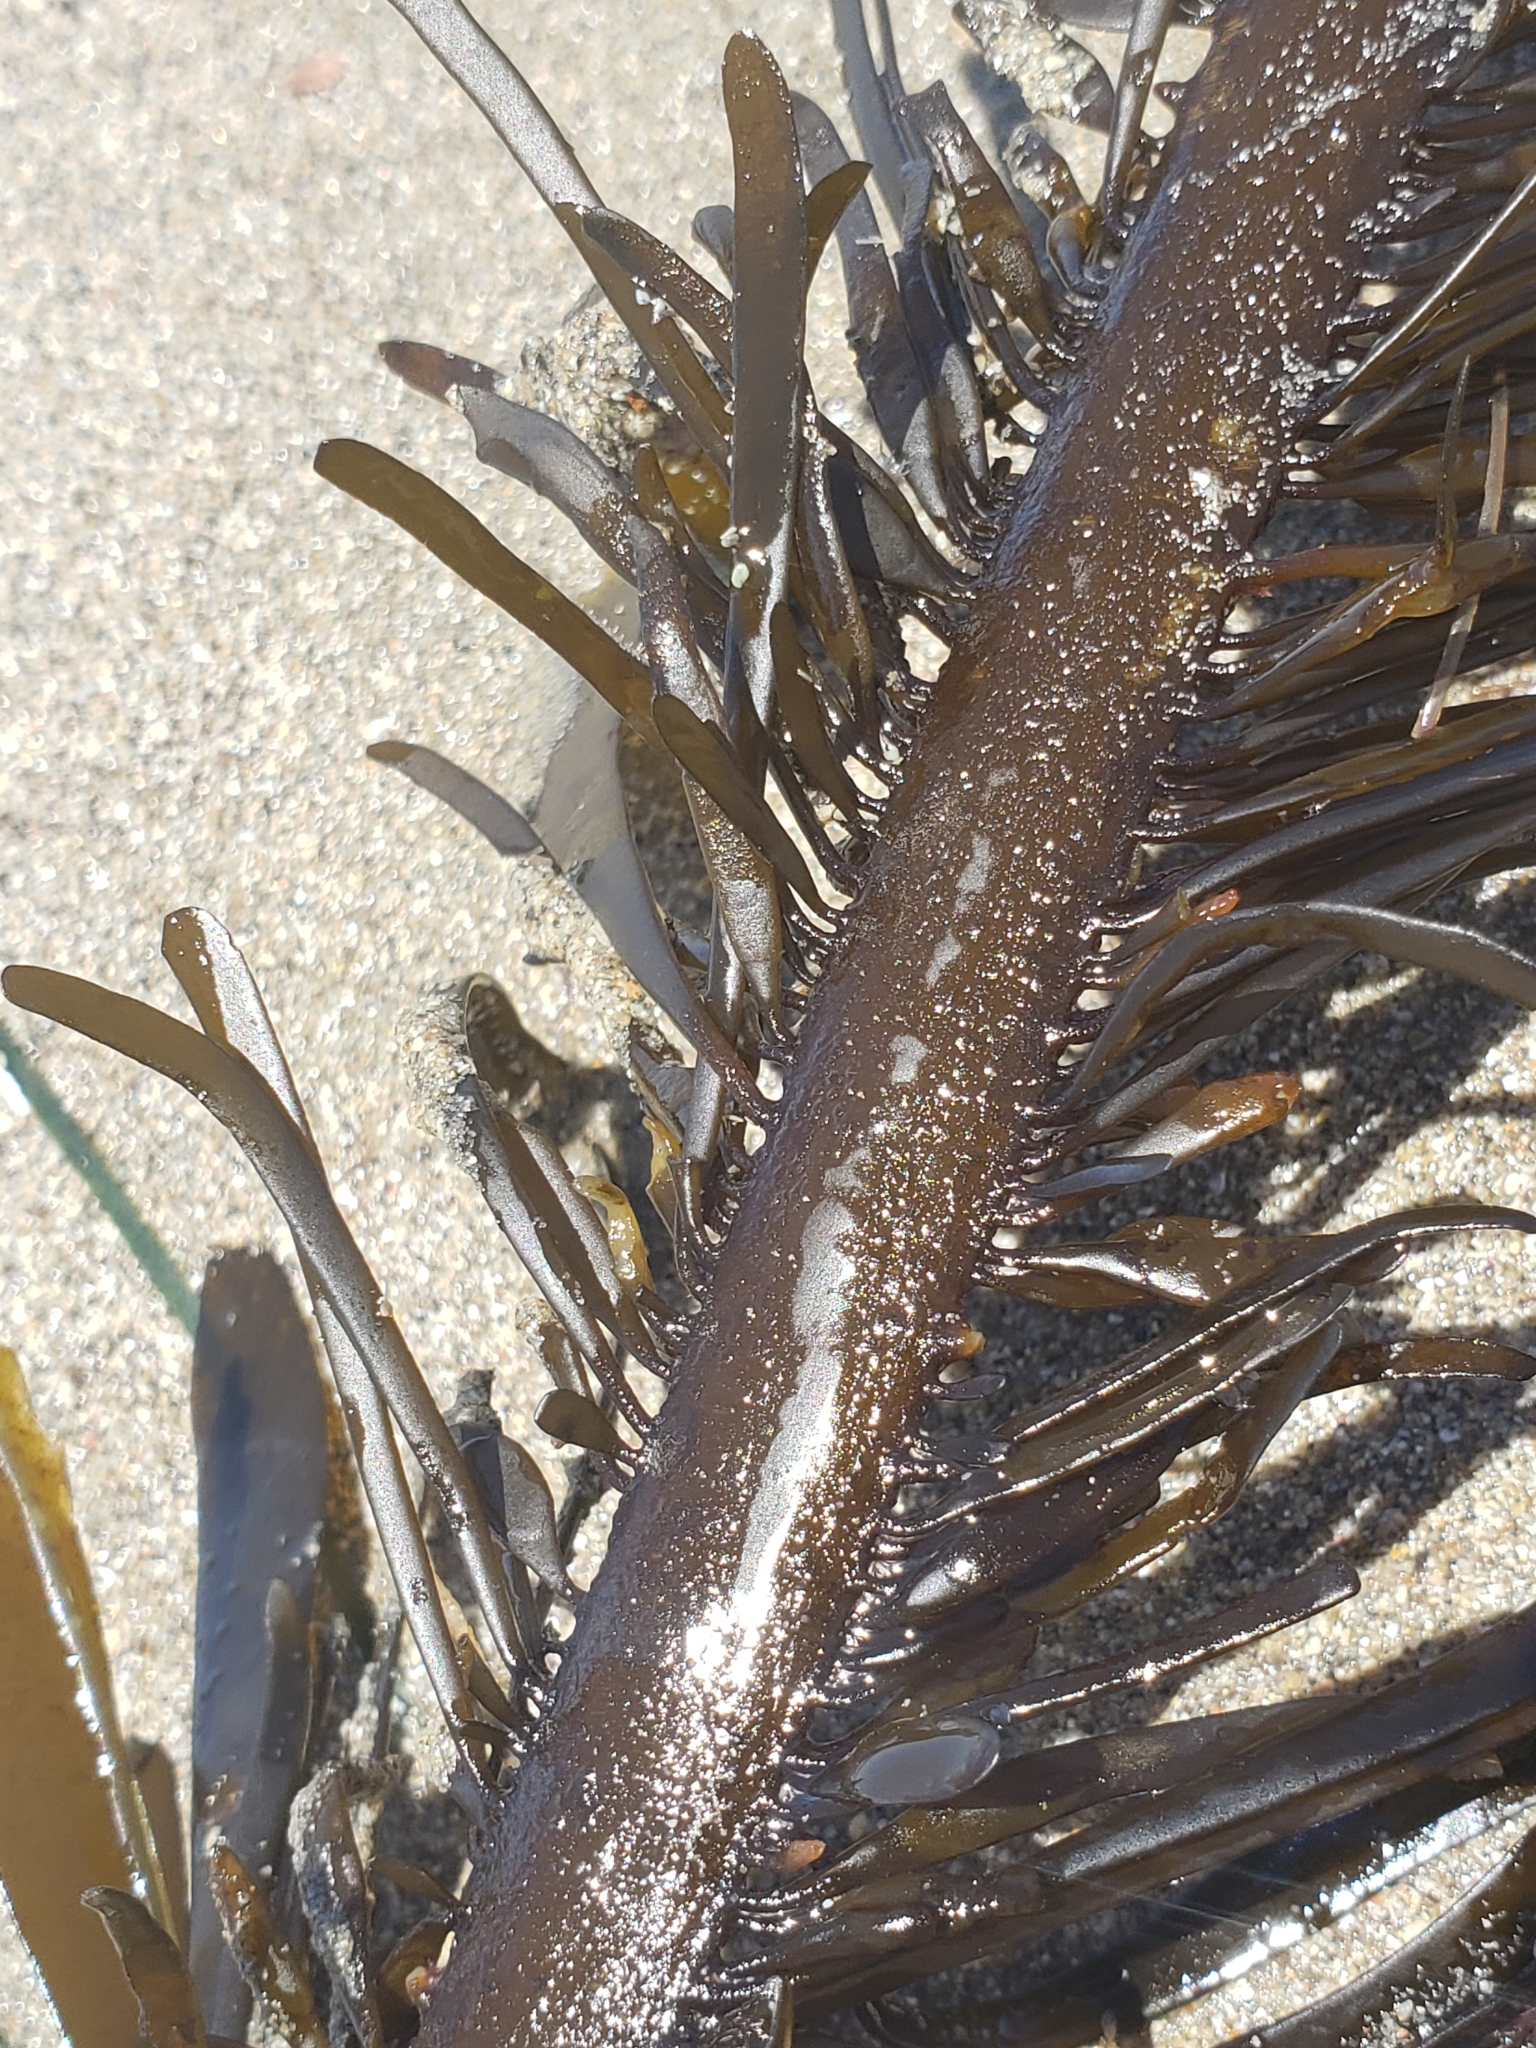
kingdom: Chromista
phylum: Ochrophyta
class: Phaeophyceae
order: Laminariales
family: Lessoniaceae
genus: Egregia
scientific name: Egregia menziesii
